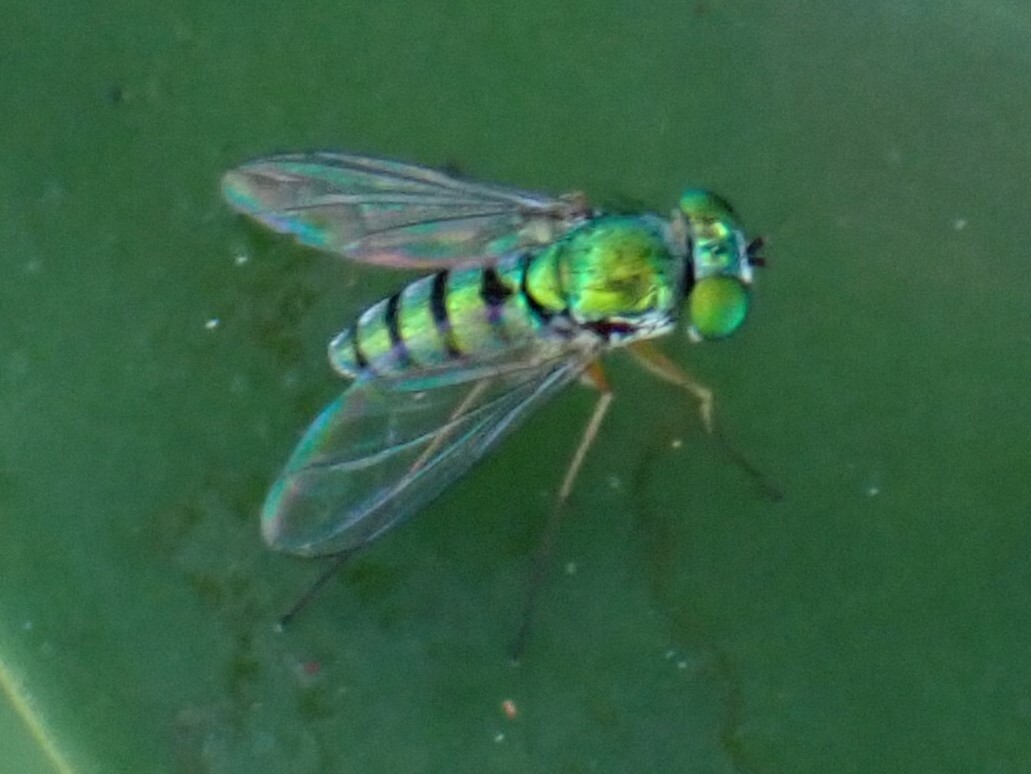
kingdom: Animalia
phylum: Arthropoda
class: Insecta
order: Diptera
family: Dolichopodidae
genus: Condylostylus
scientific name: Condylostylus
